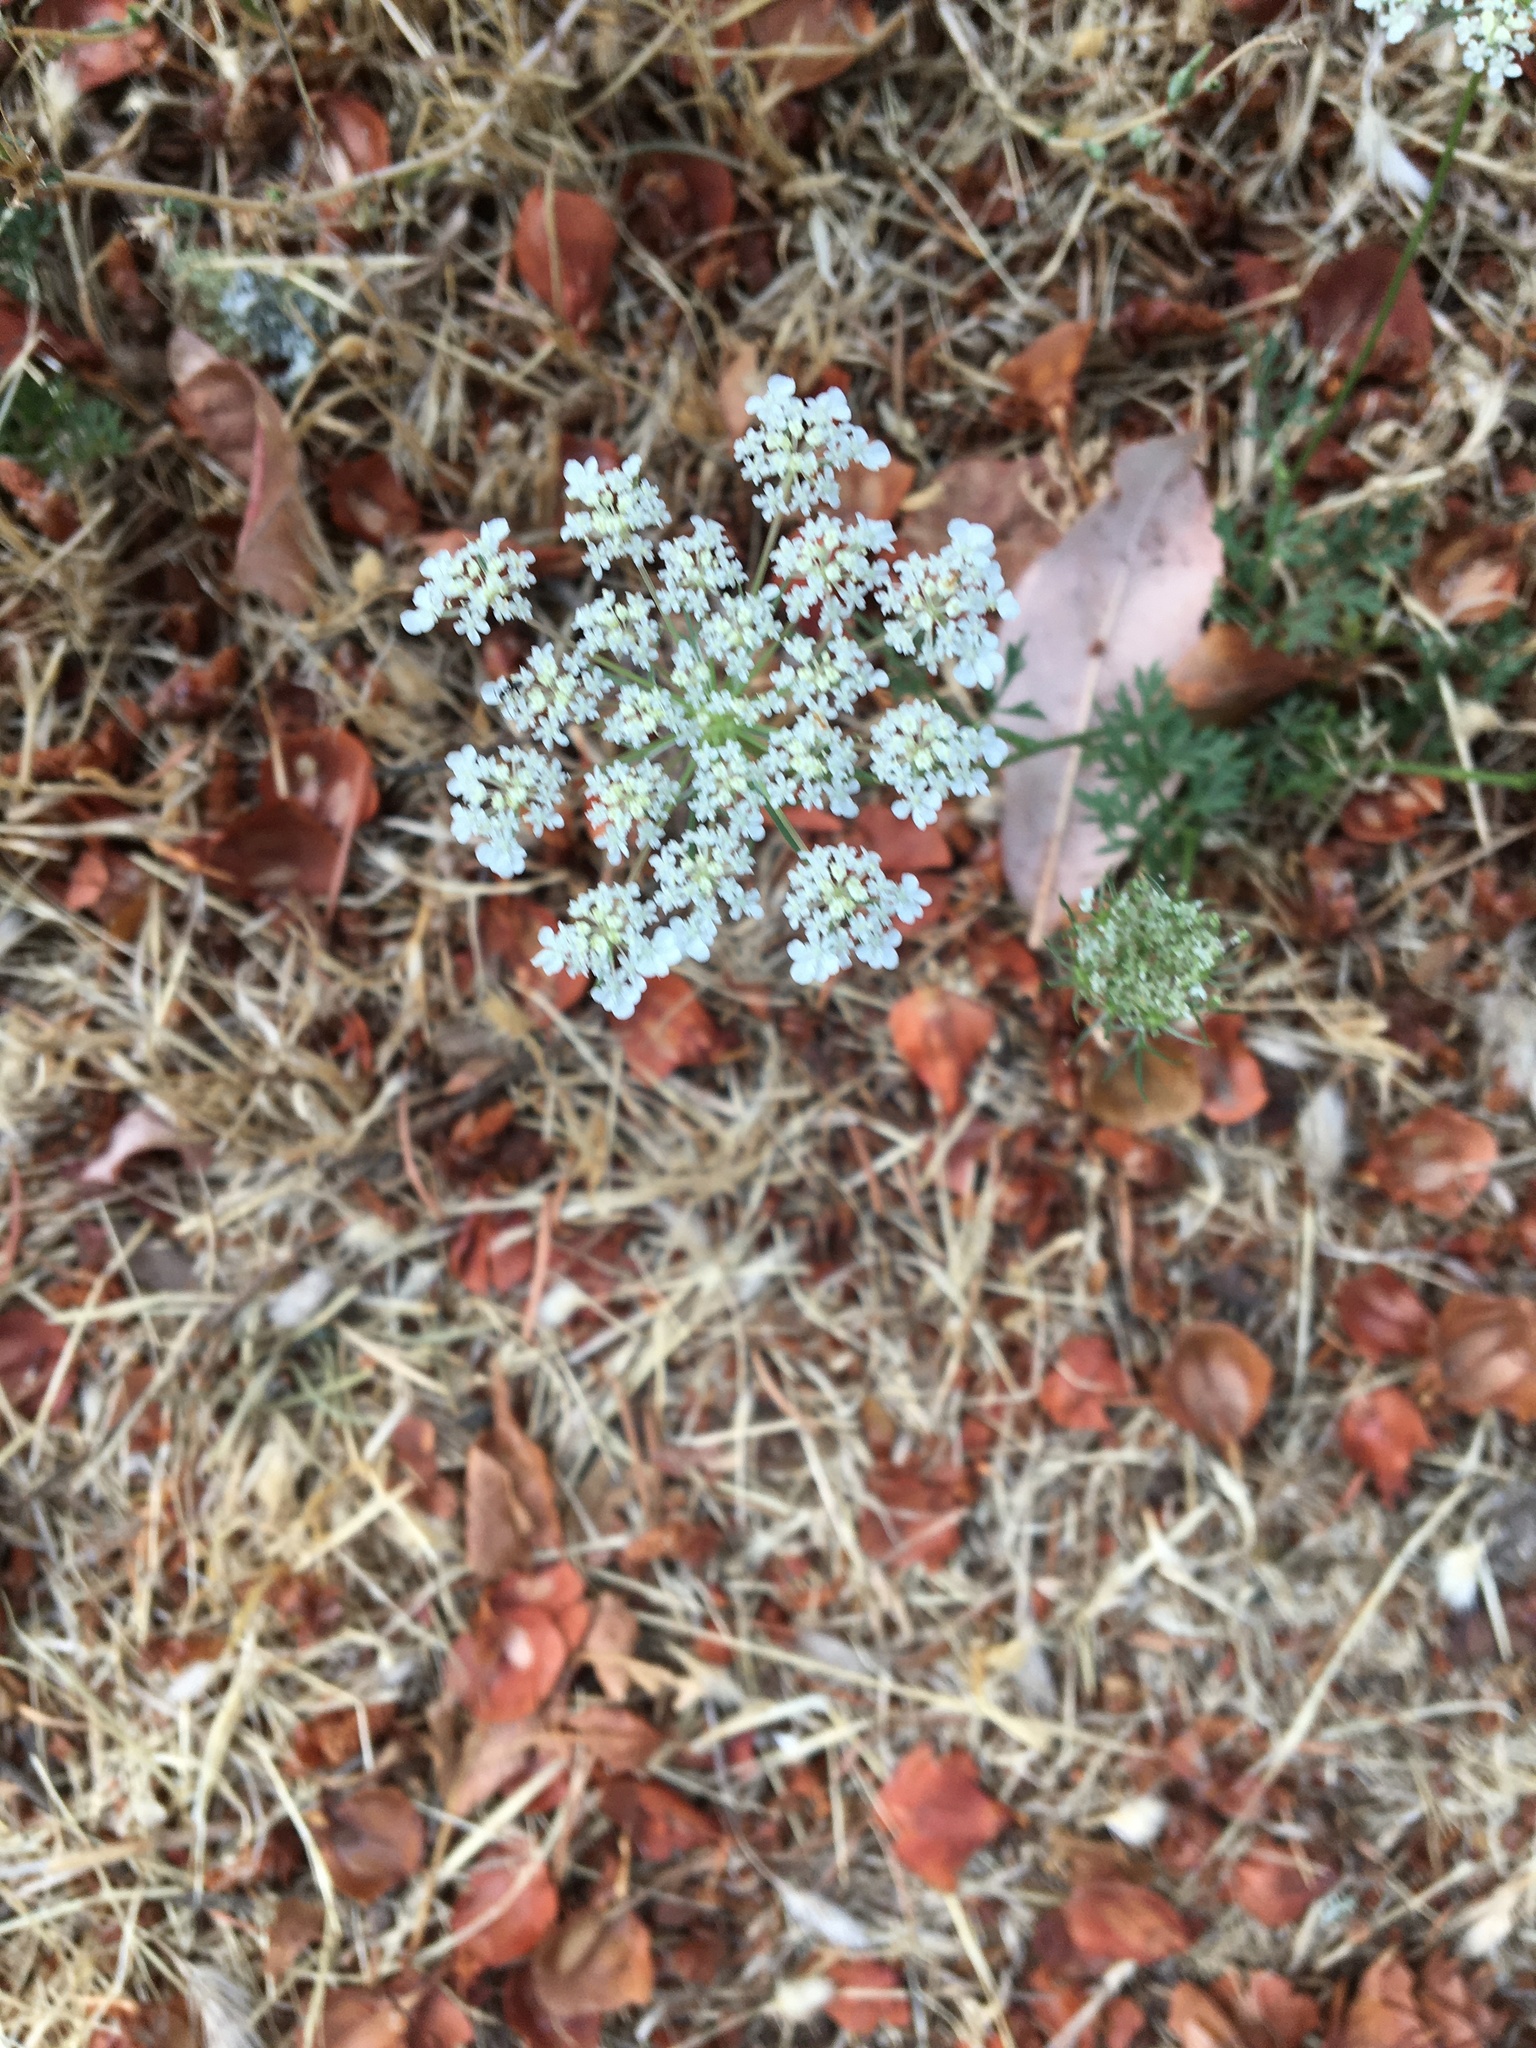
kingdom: Plantae
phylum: Tracheophyta
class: Magnoliopsida
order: Apiales
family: Apiaceae
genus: Daucus
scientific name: Daucus carota
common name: Wild carrot
